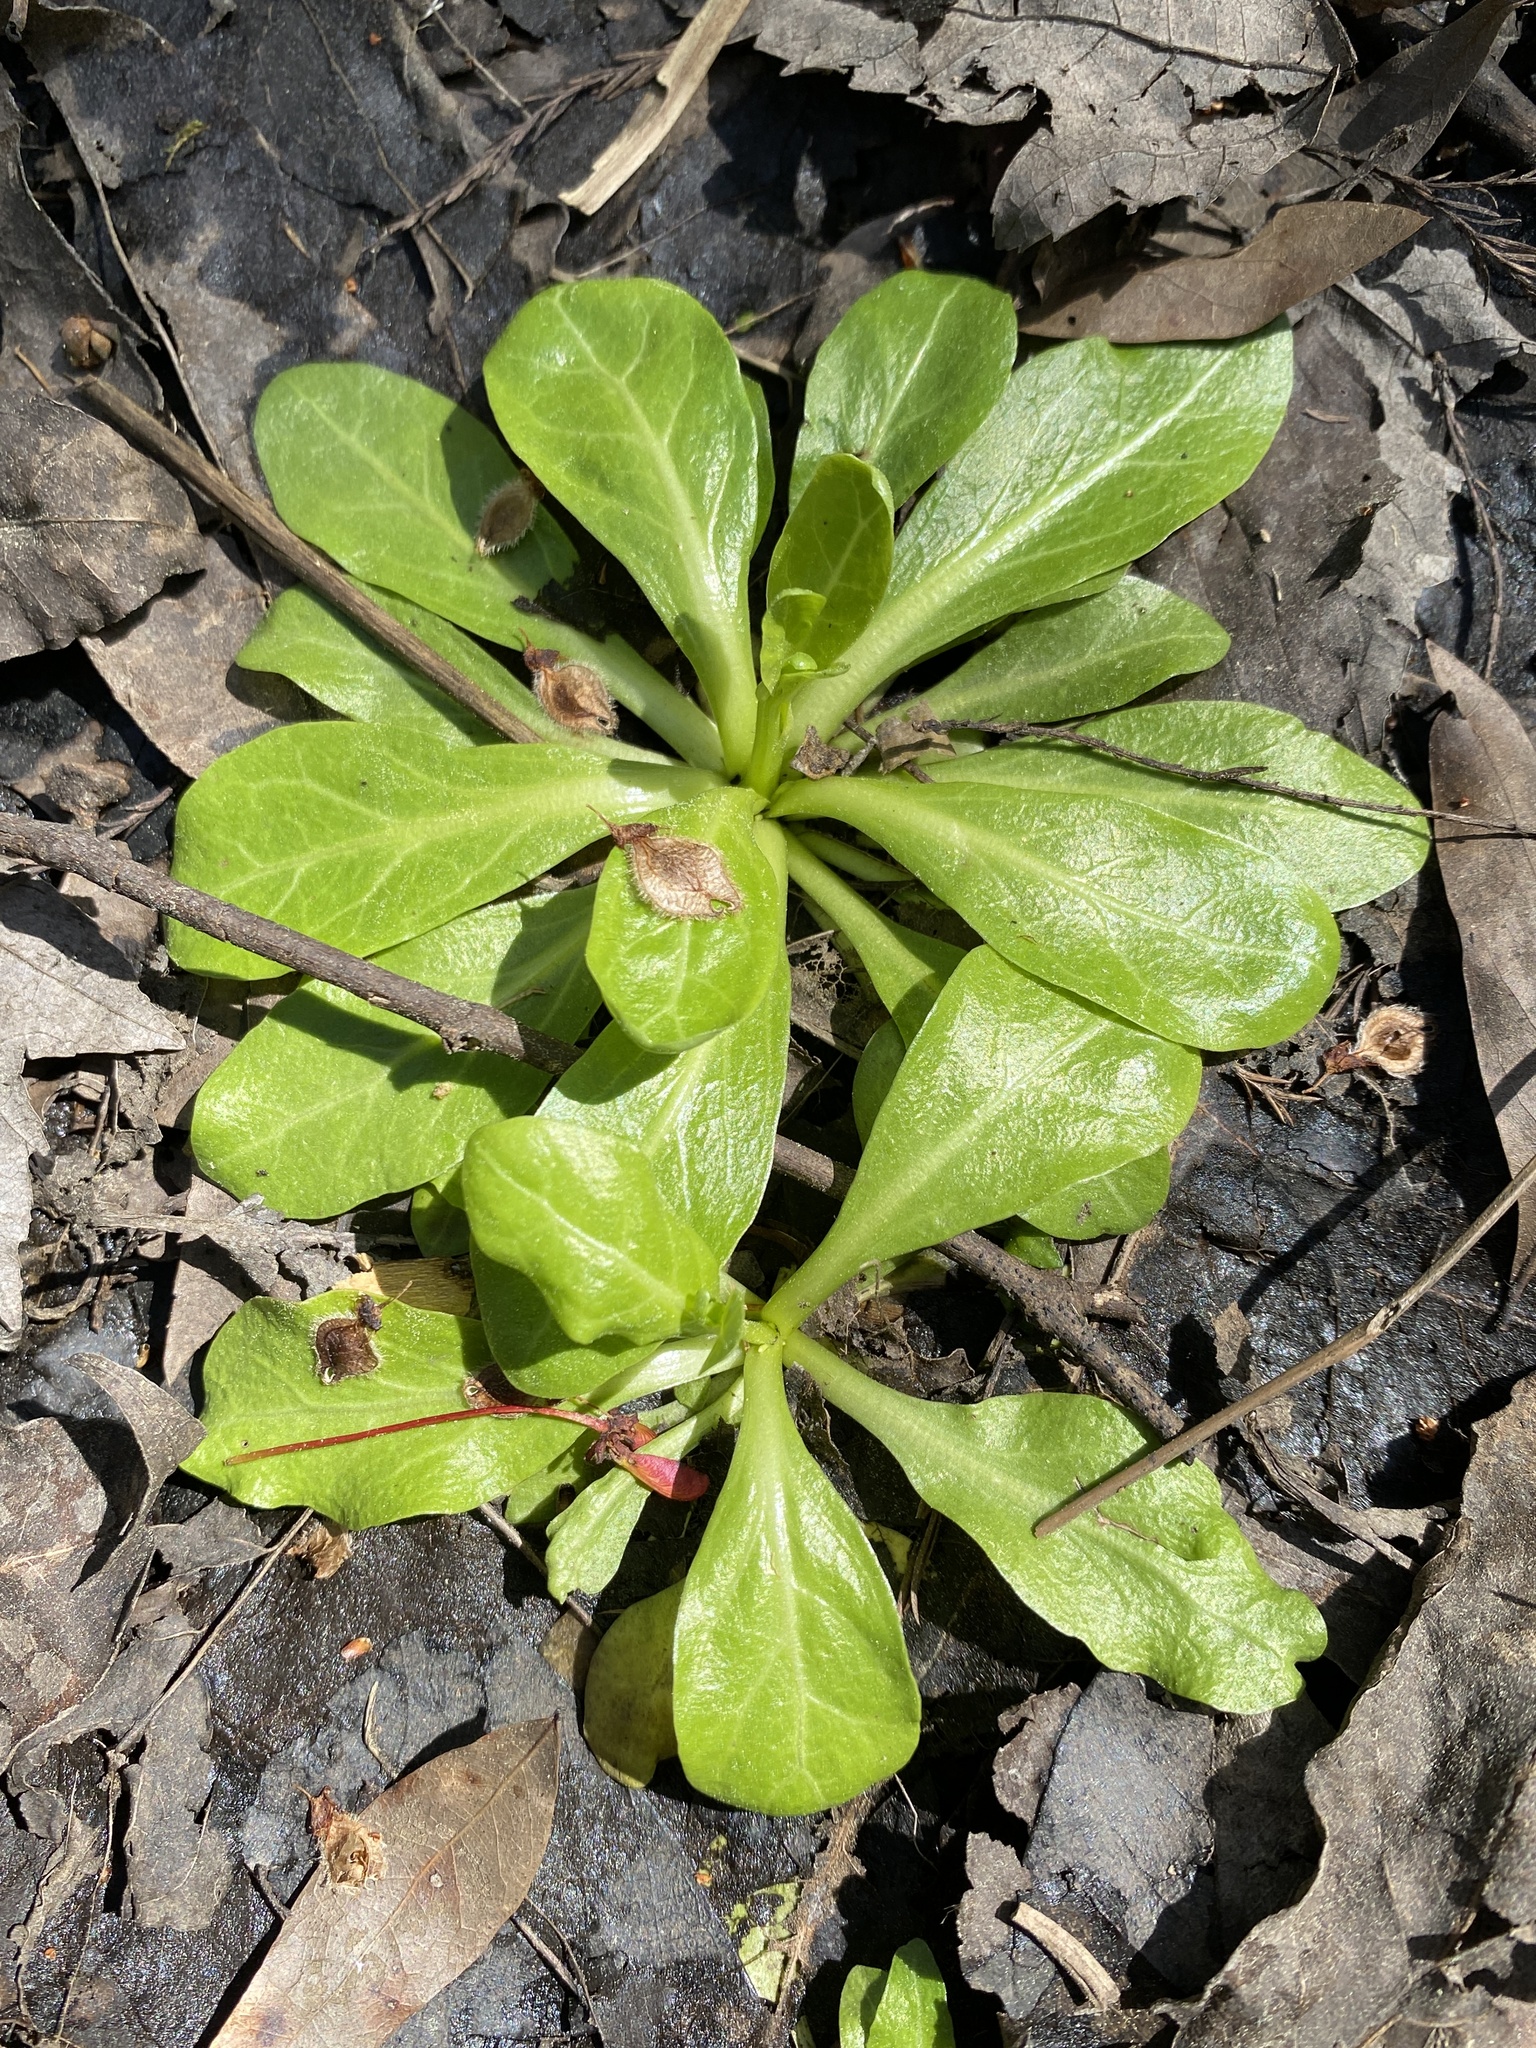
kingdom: Plantae
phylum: Tracheophyta
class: Magnoliopsida
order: Ericales
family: Primulaceae
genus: Samolus
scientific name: Samolus parviflorus
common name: False water pimpernel
